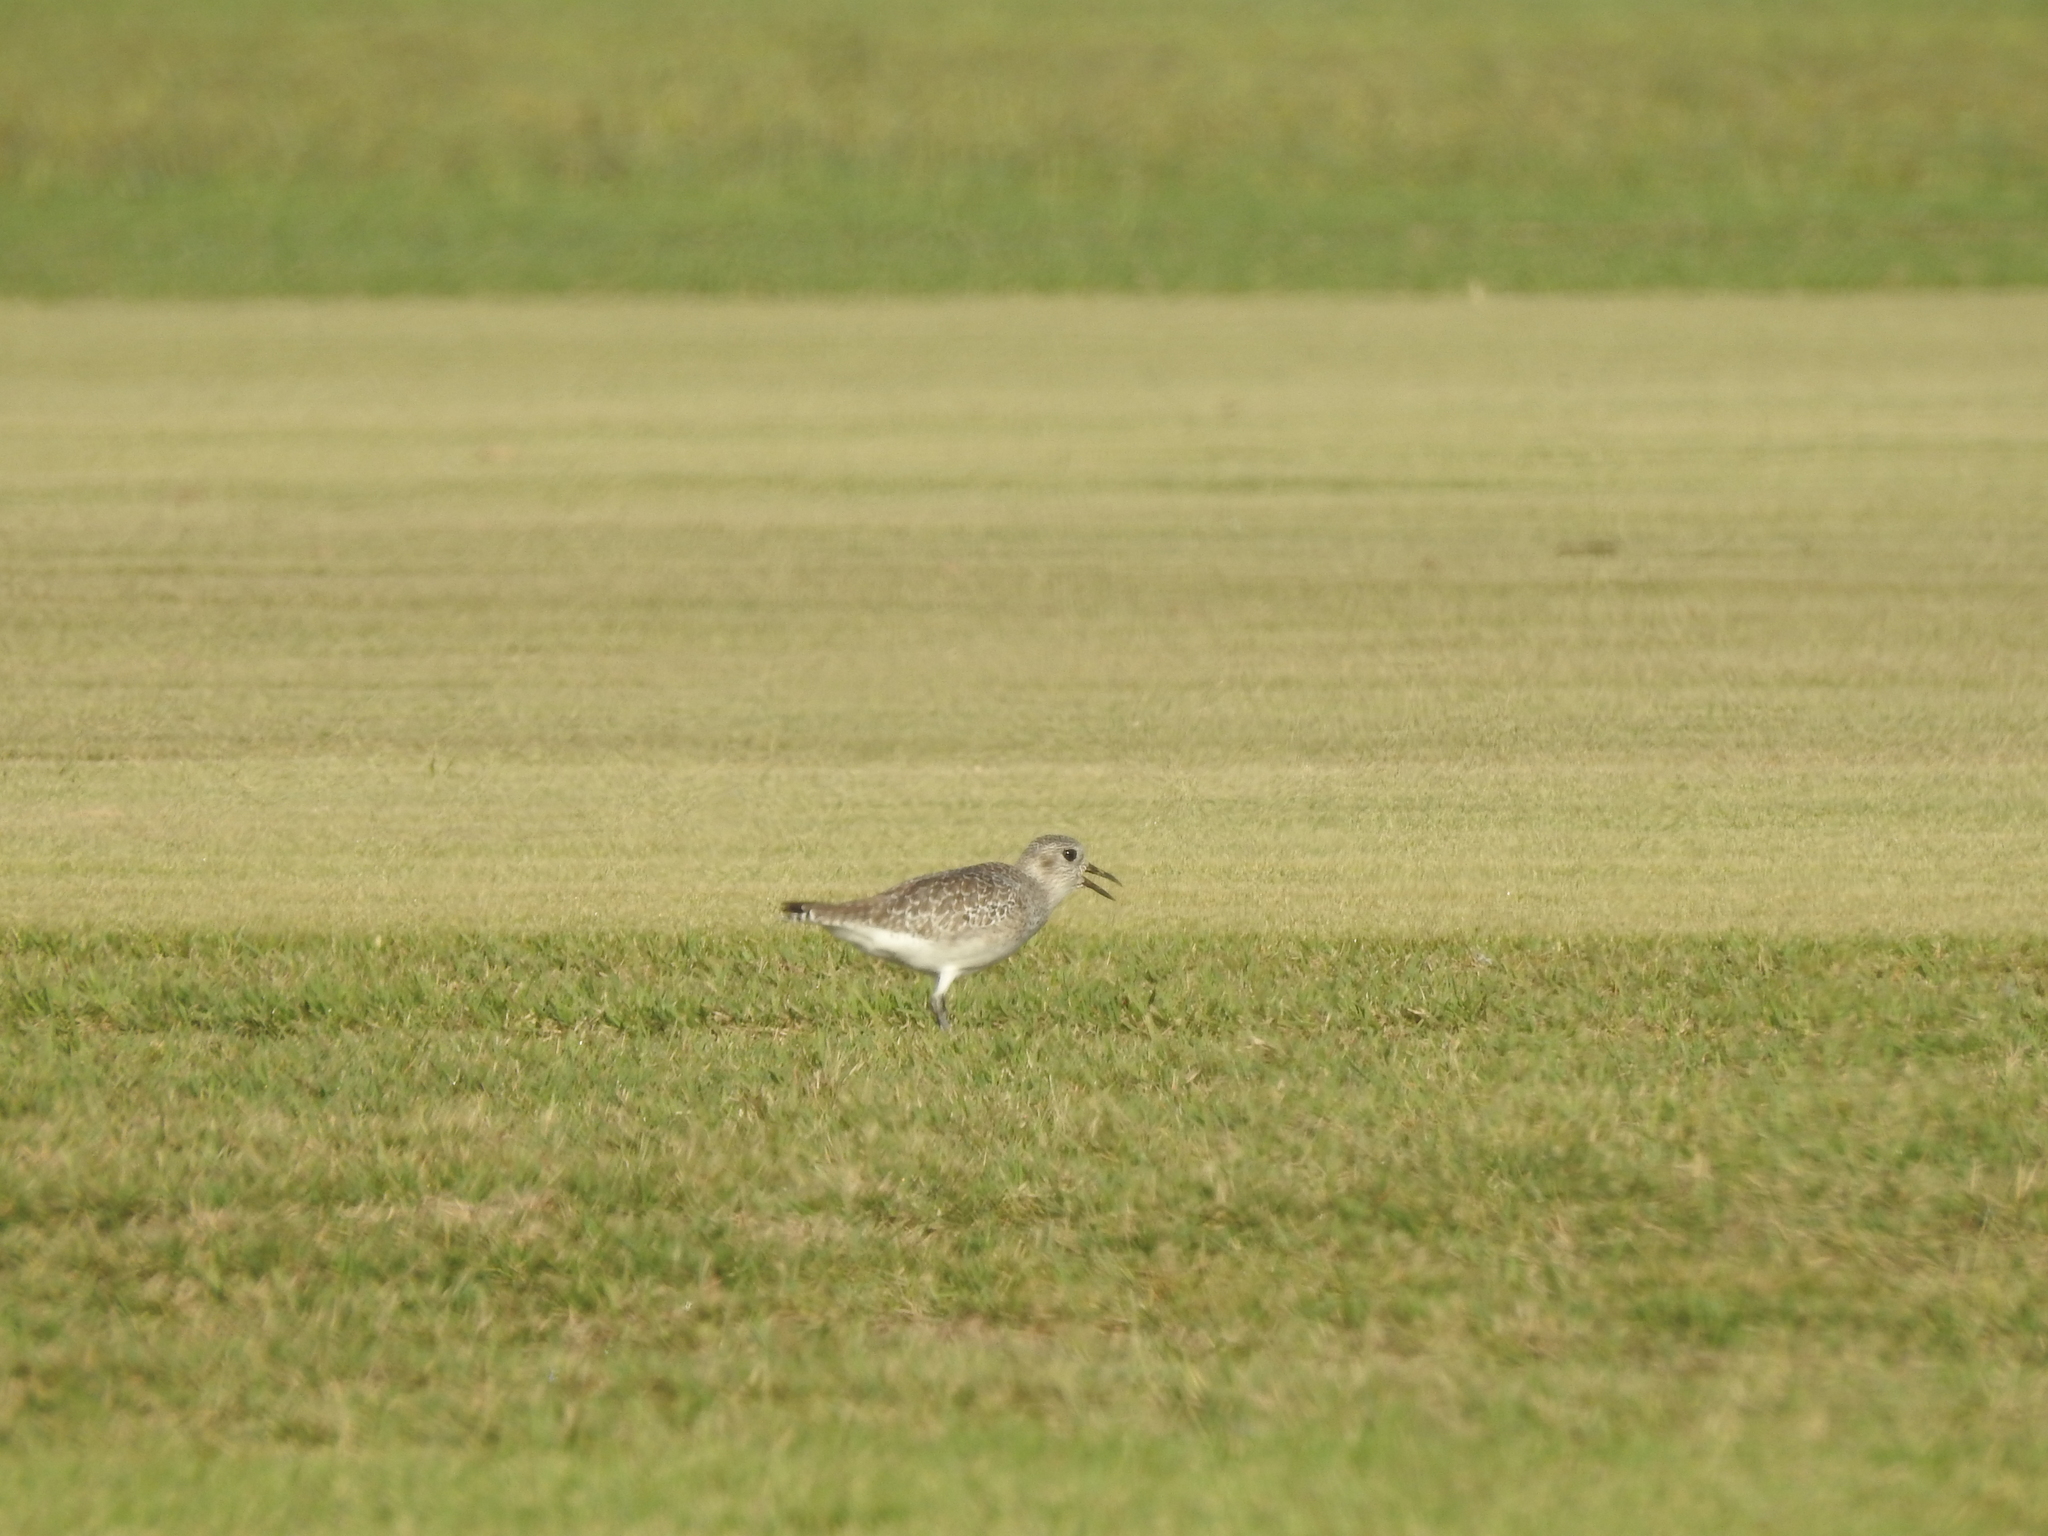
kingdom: Animalia
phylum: Chordata
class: Aves
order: Charadriiformes
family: Charadriidae
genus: Pluvialis
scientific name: Pluvialis squatarola
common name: Grey plover
